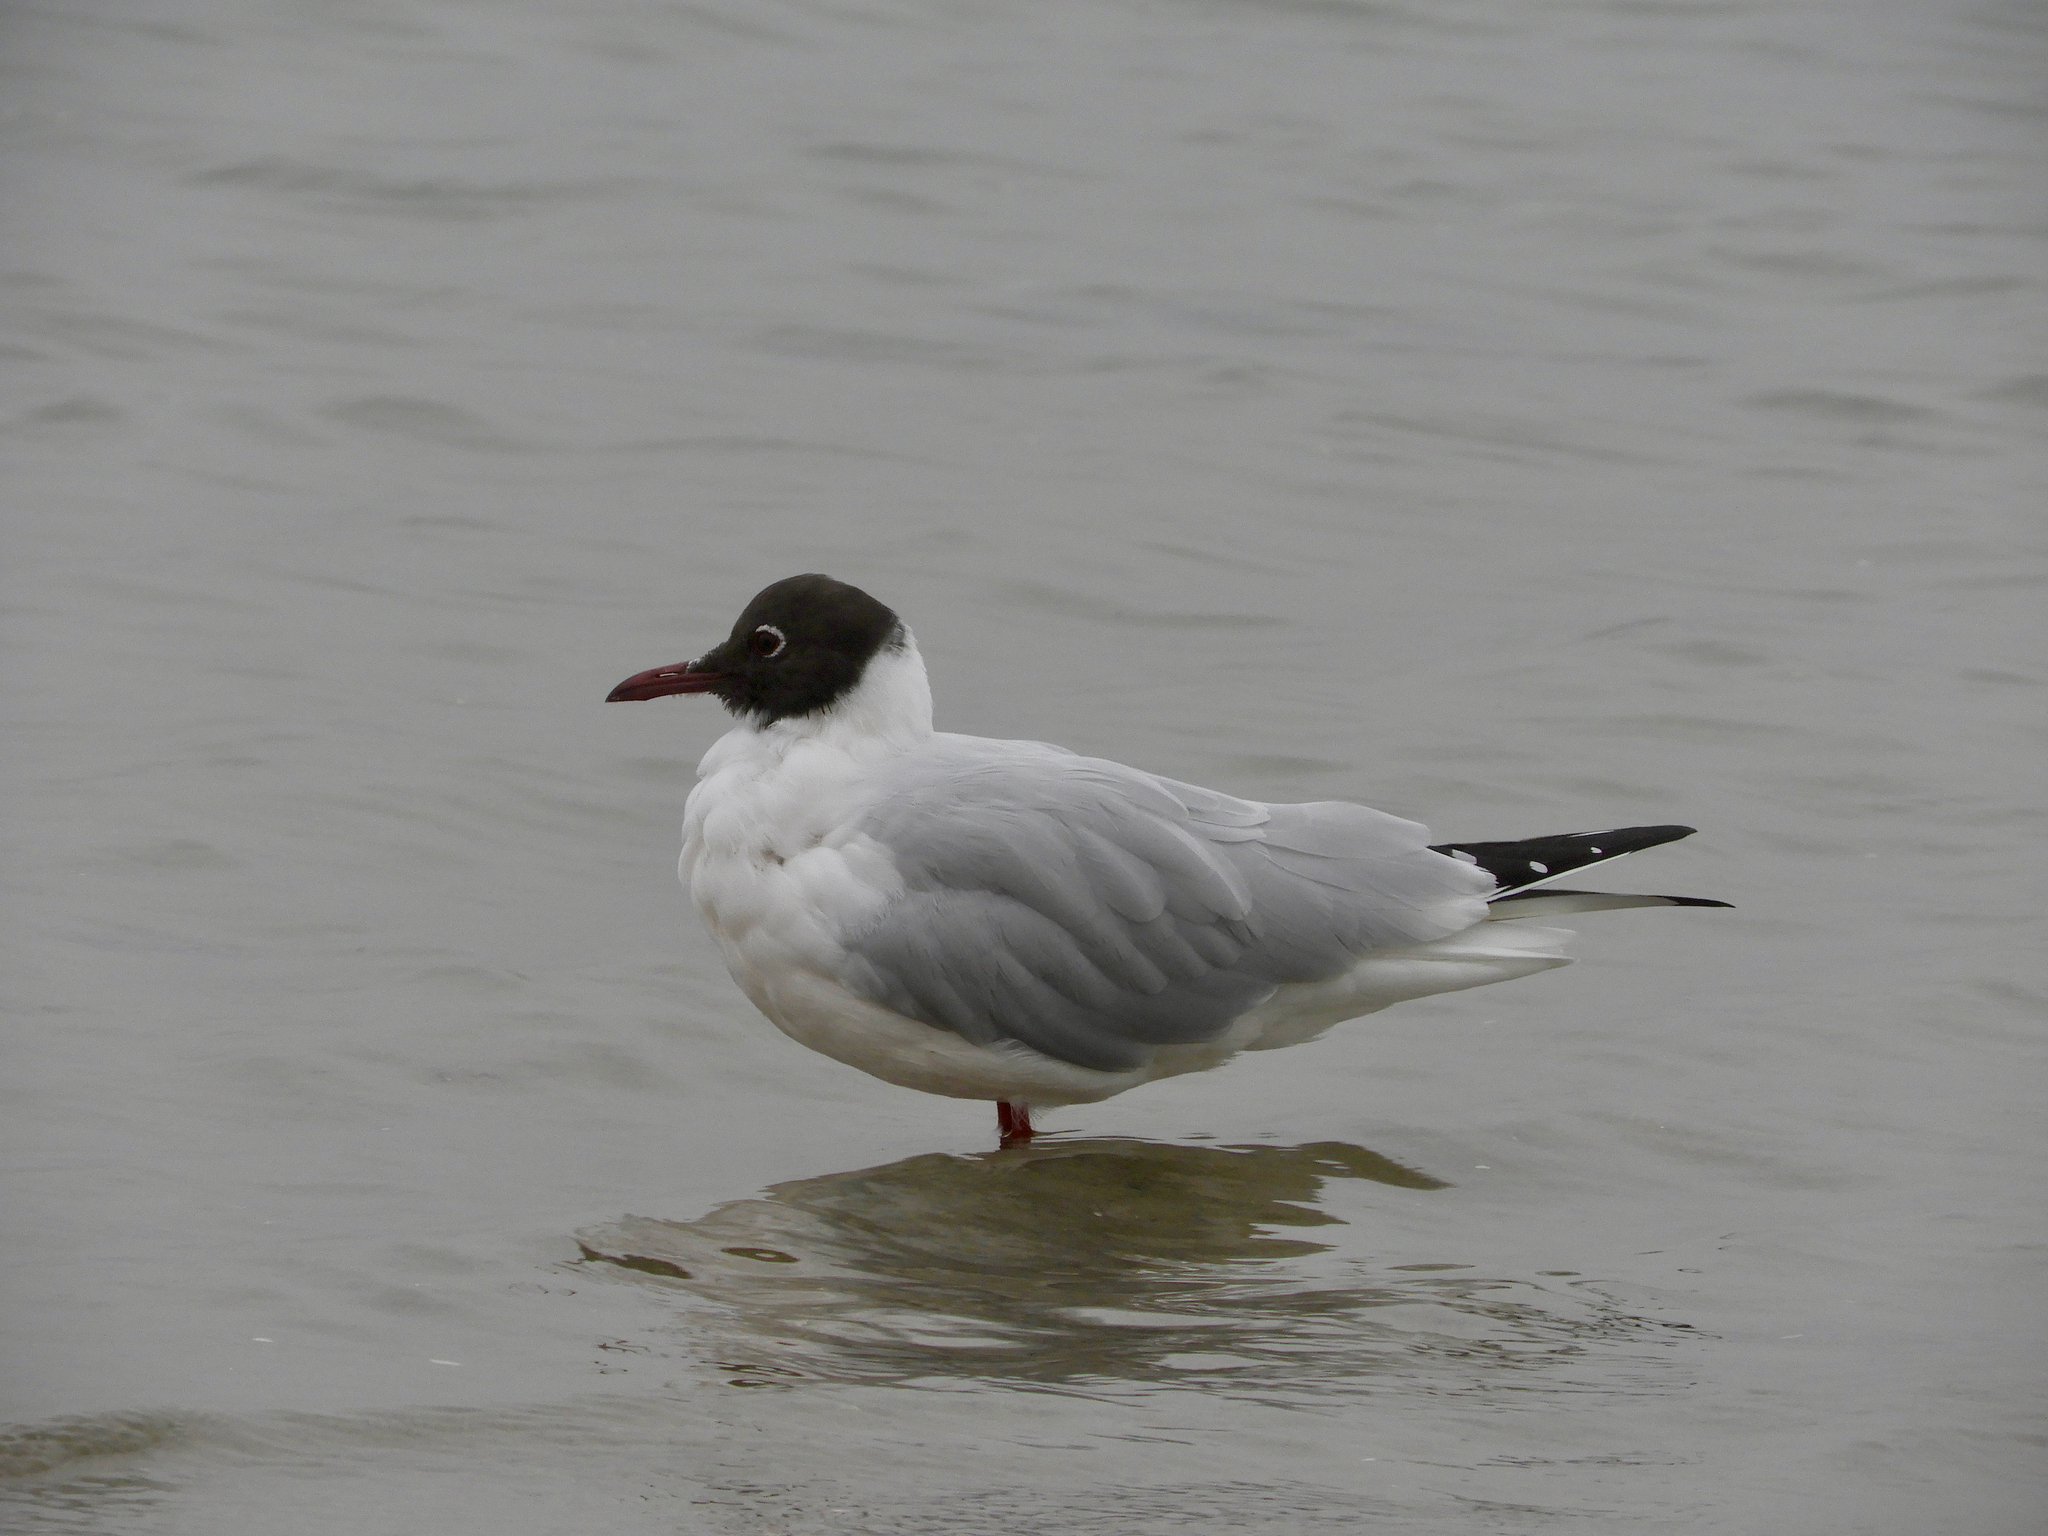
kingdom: Animalia
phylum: Chordata
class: Aves
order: Charadriiformes
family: Laridae
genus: Chroicocephalus
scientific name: Chroicocephalus ridibundus
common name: Black-headed gull
